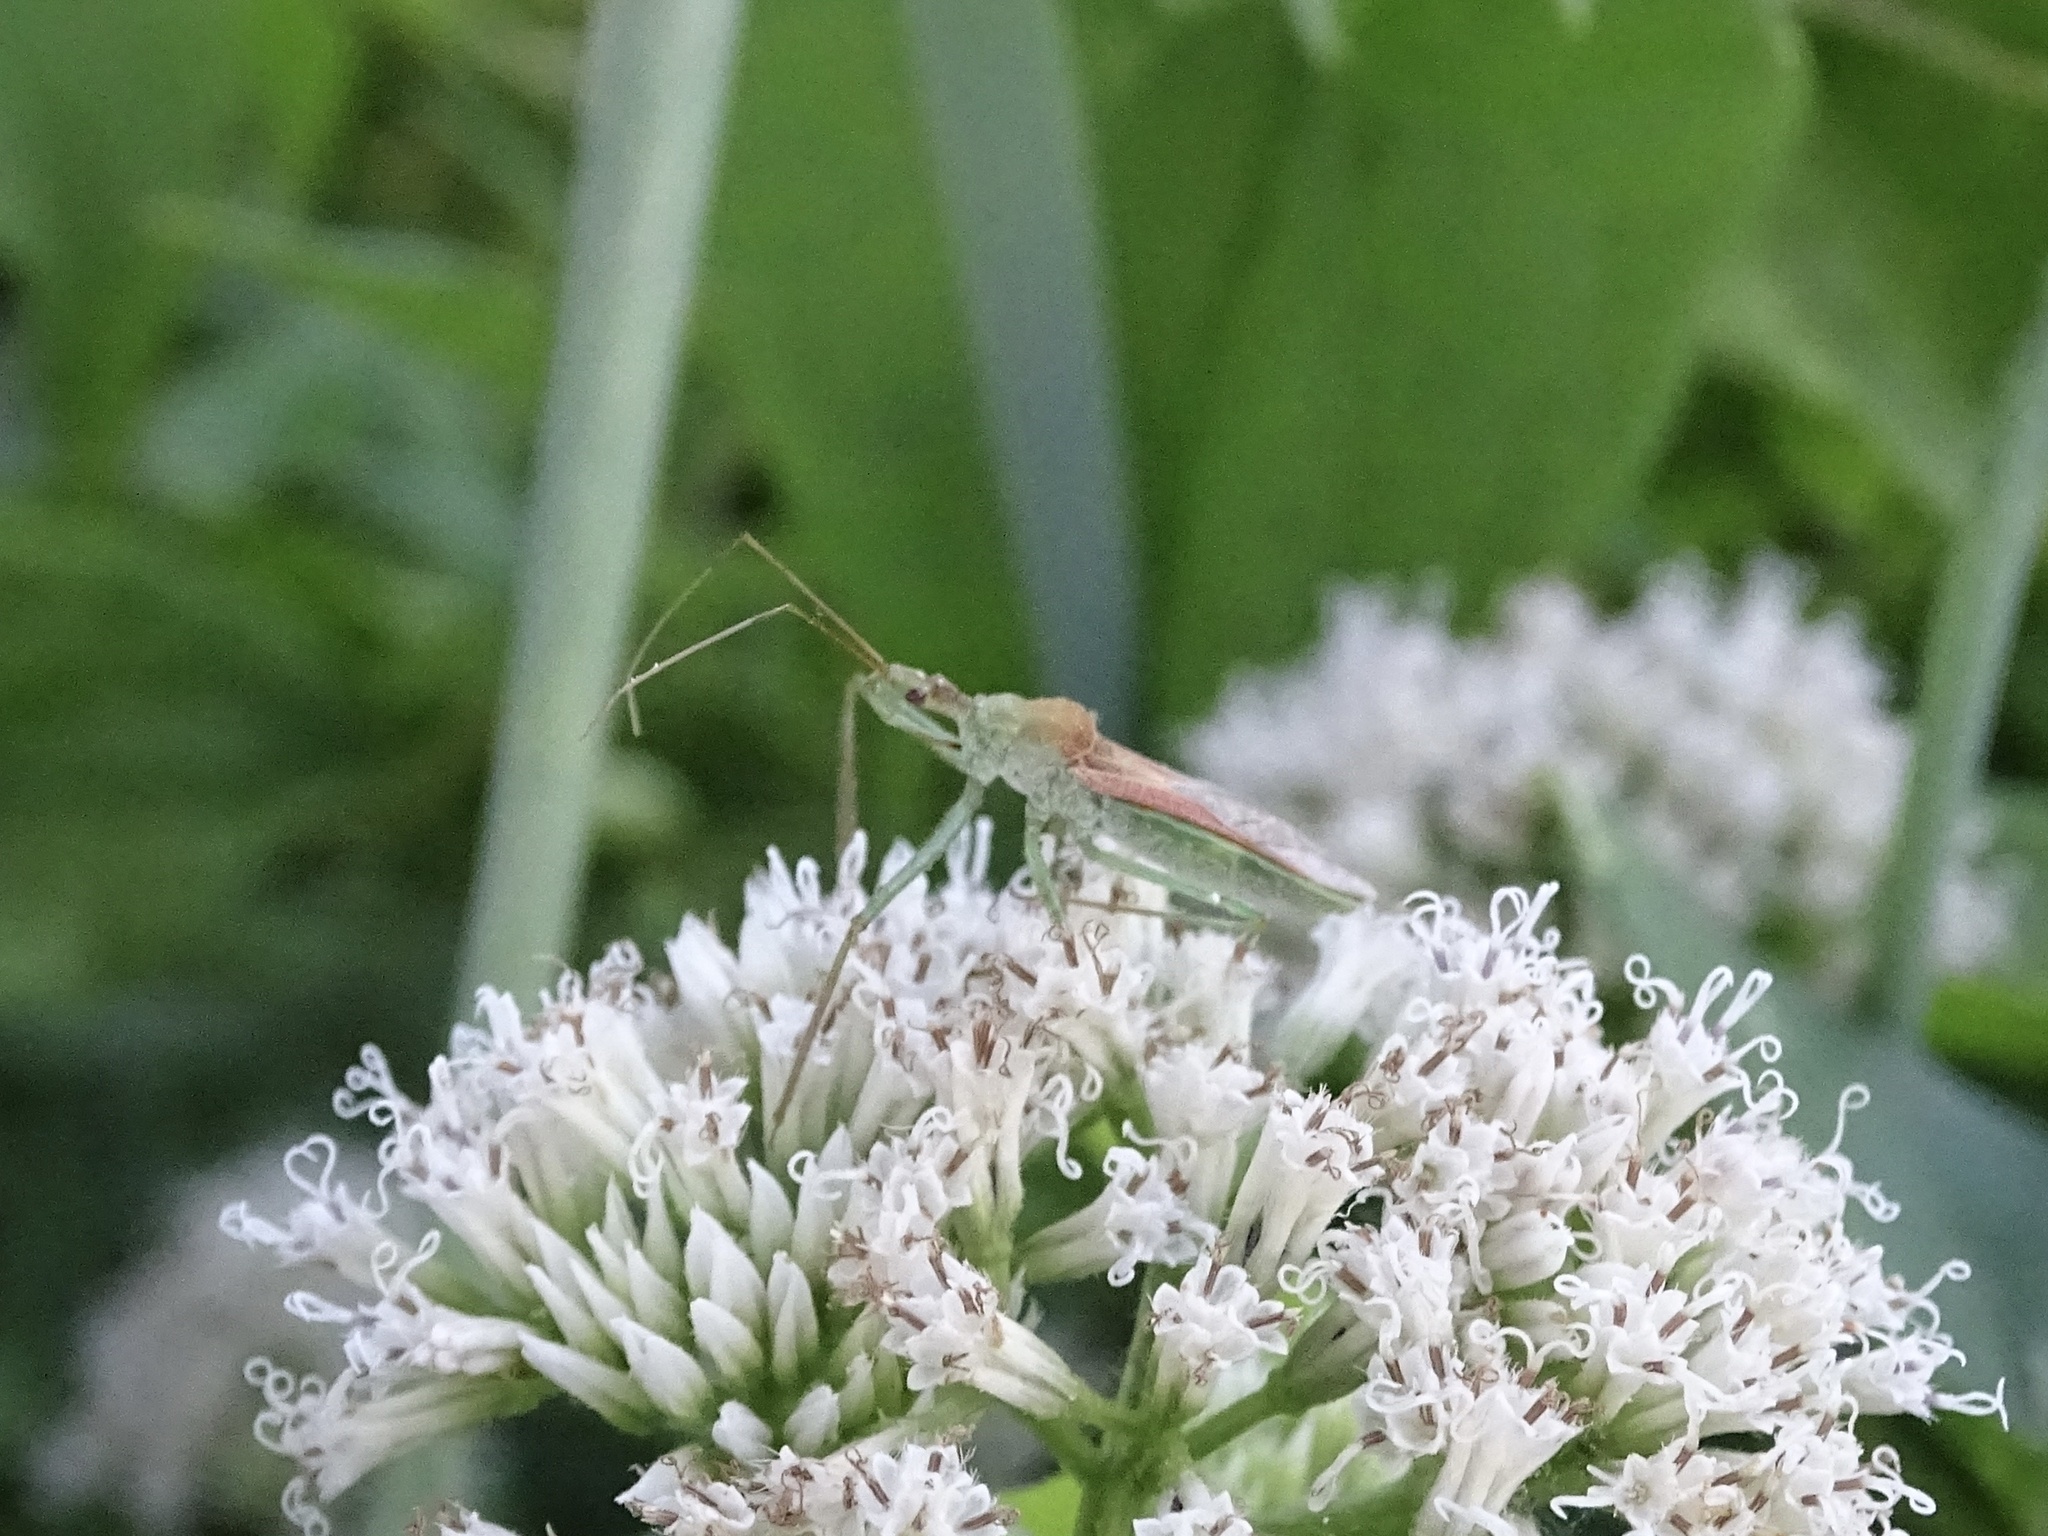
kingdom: Animalia
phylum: Arthropoda
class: Insecta
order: Hemiptera
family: Reduviidae
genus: Zelus
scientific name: Zelus renardii
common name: Assassin bug
